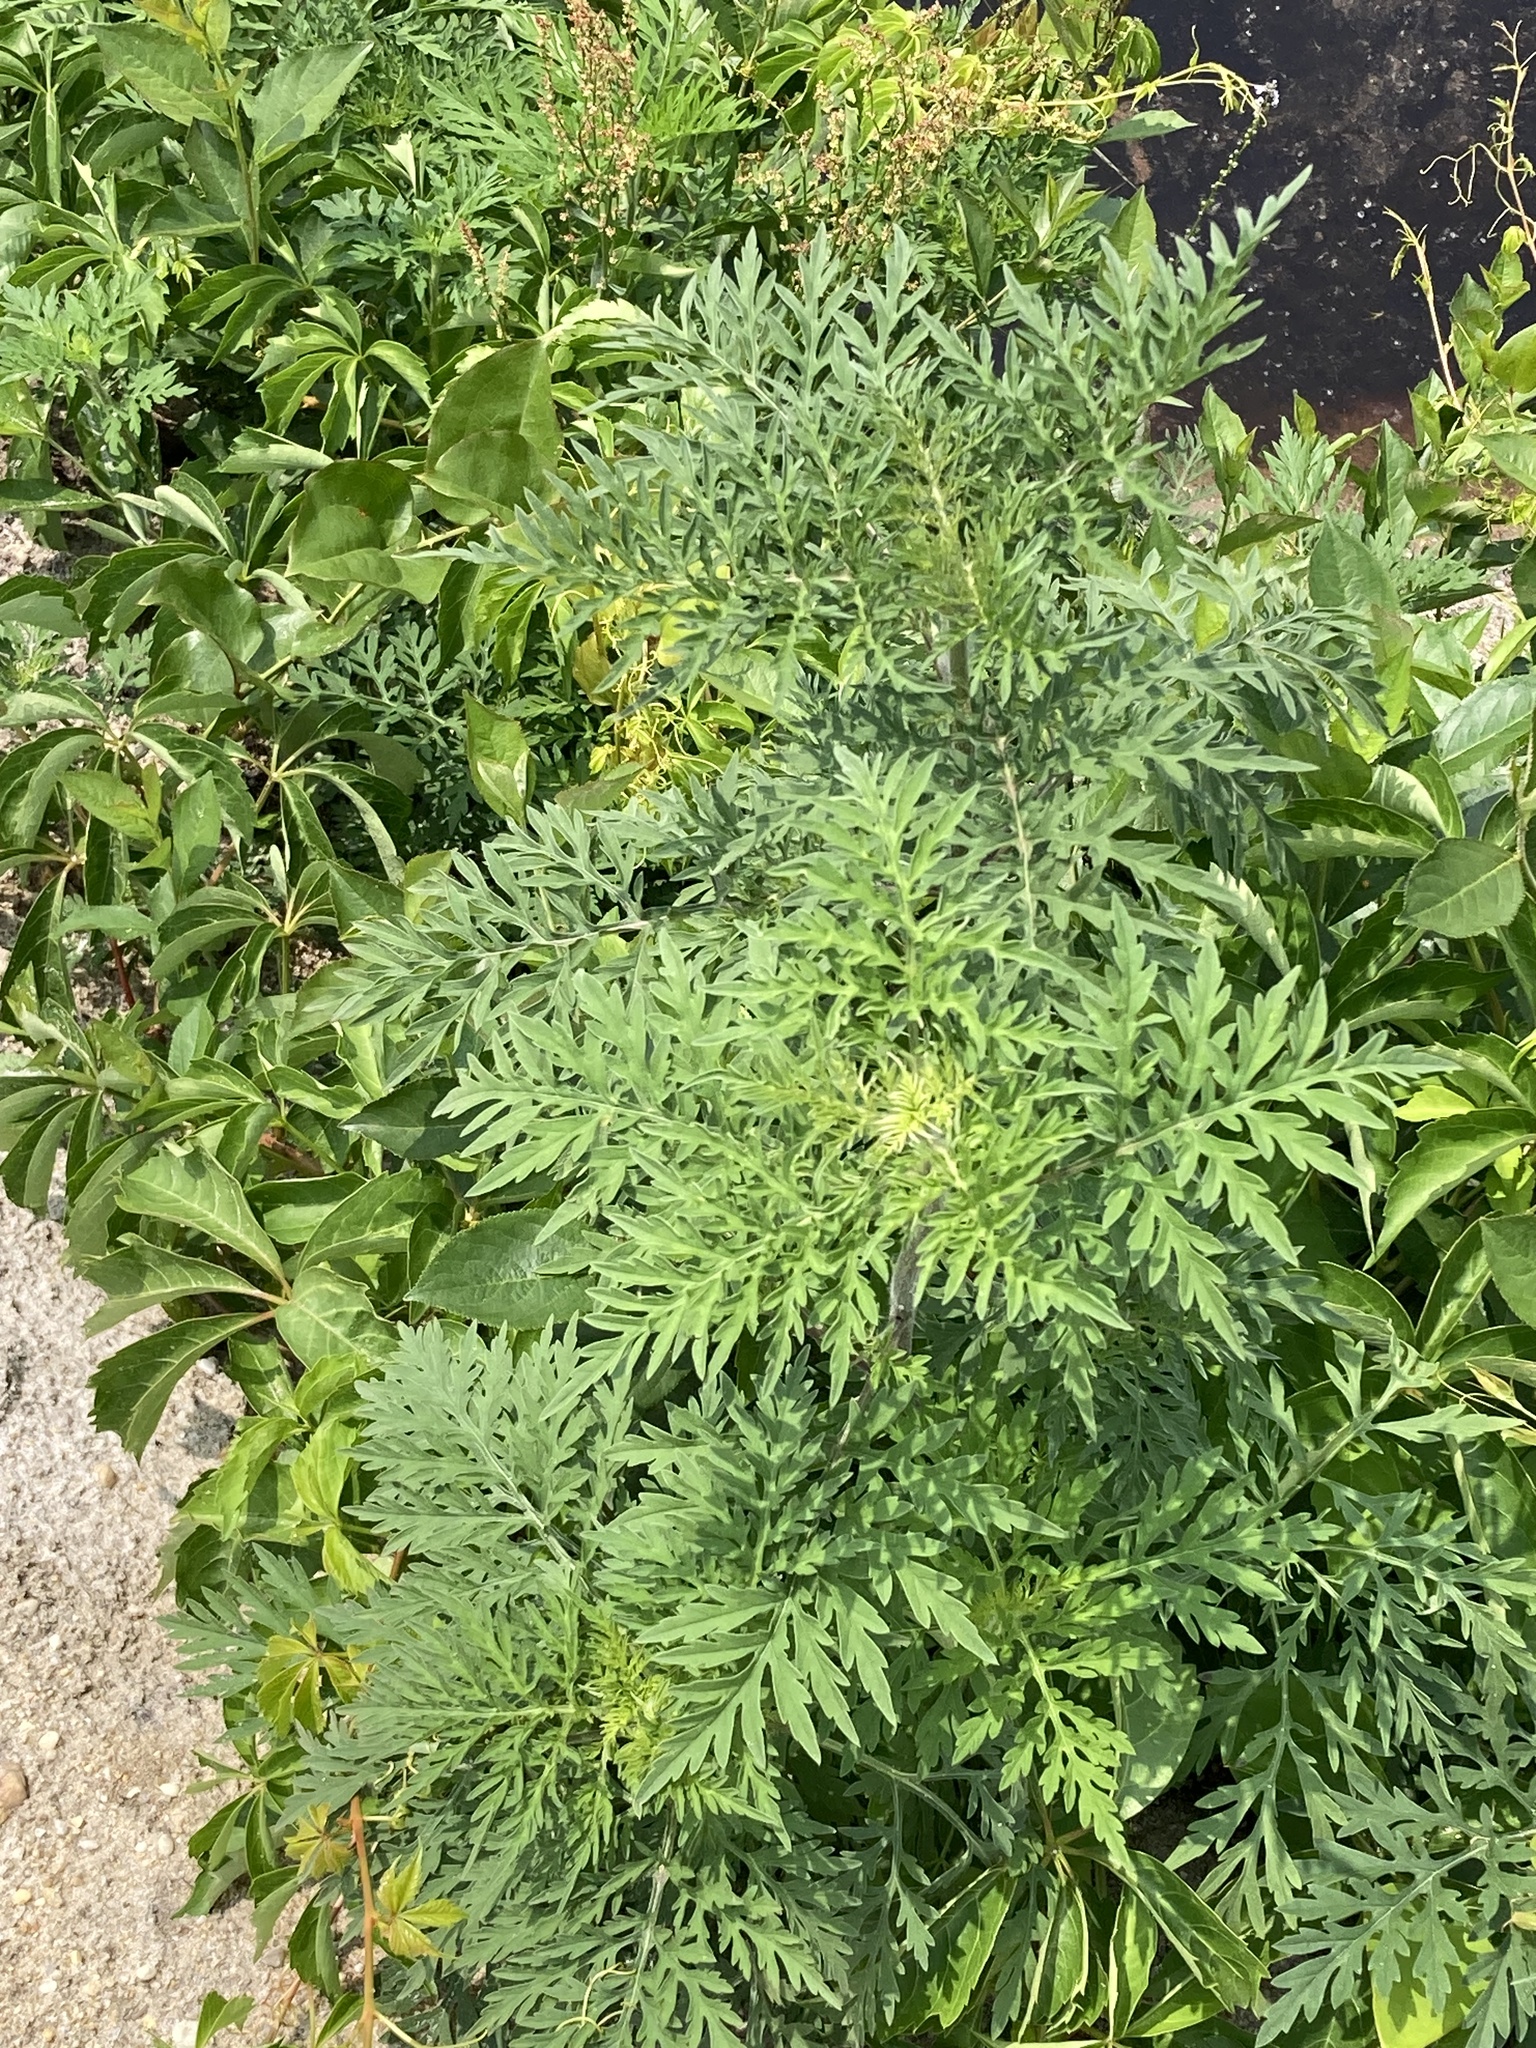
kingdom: Plantae
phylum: Tracheophyta
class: Magnoliopsida
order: Asterales
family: Asteraceae
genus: Ambrosia
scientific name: Ambrosia artemisiifolia
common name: Annual ragweed
